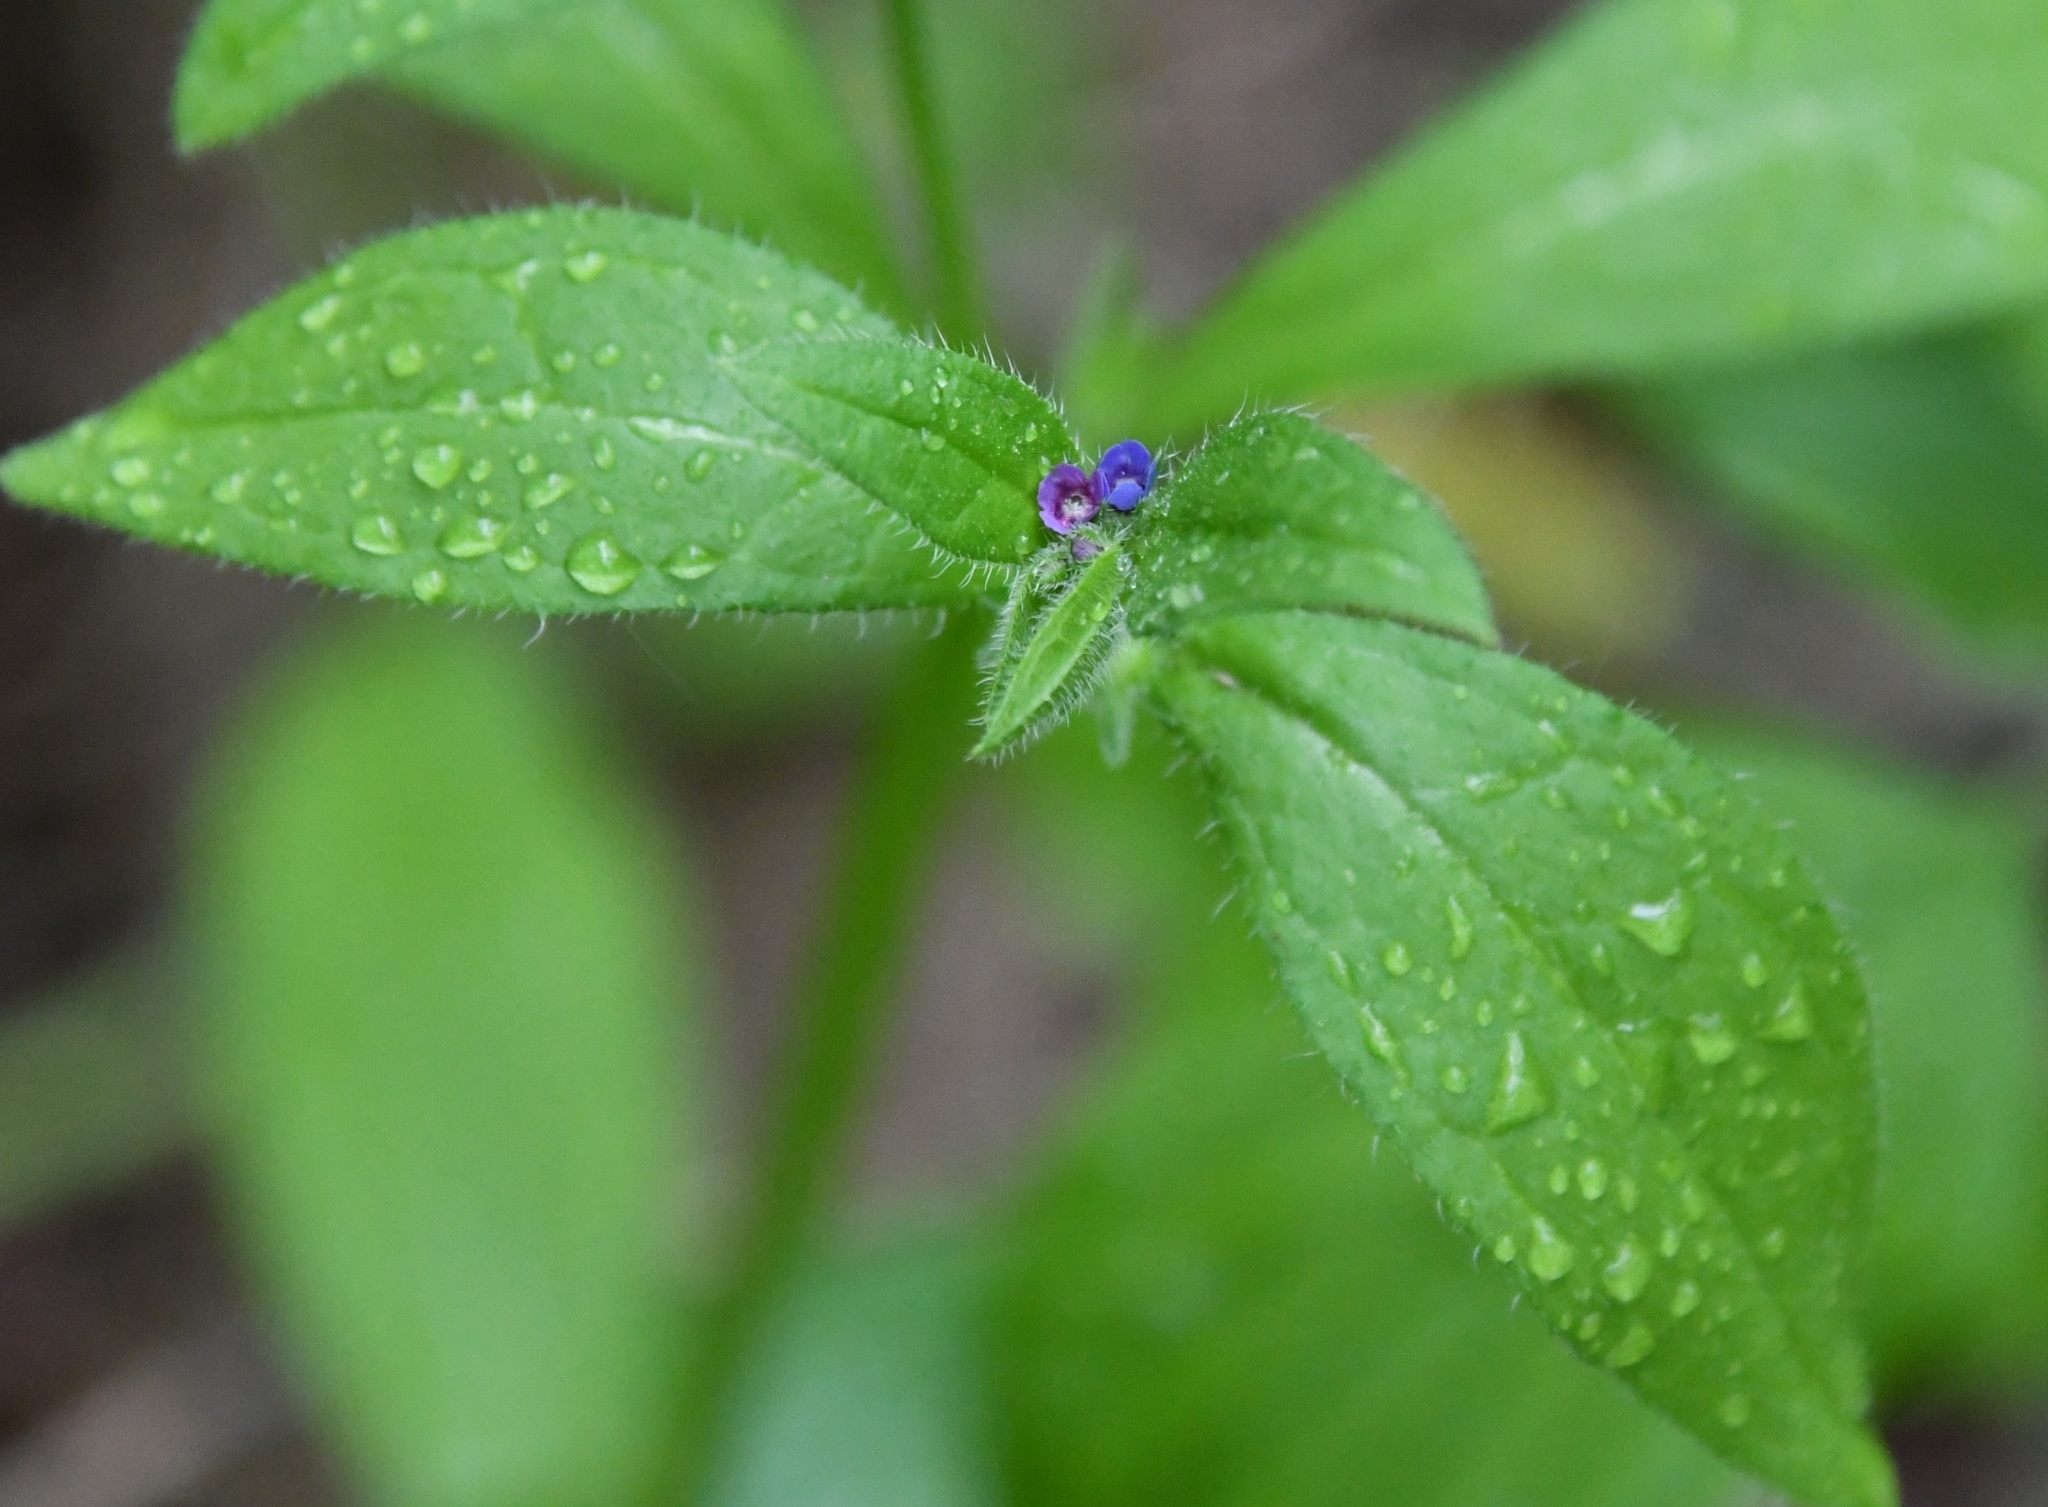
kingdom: Plantae
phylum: Tracheophyta
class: Magnoliopsida
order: Boraginales
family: Boraginaceae
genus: Asperugo
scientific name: Asperugo procumbens
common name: Madwort
